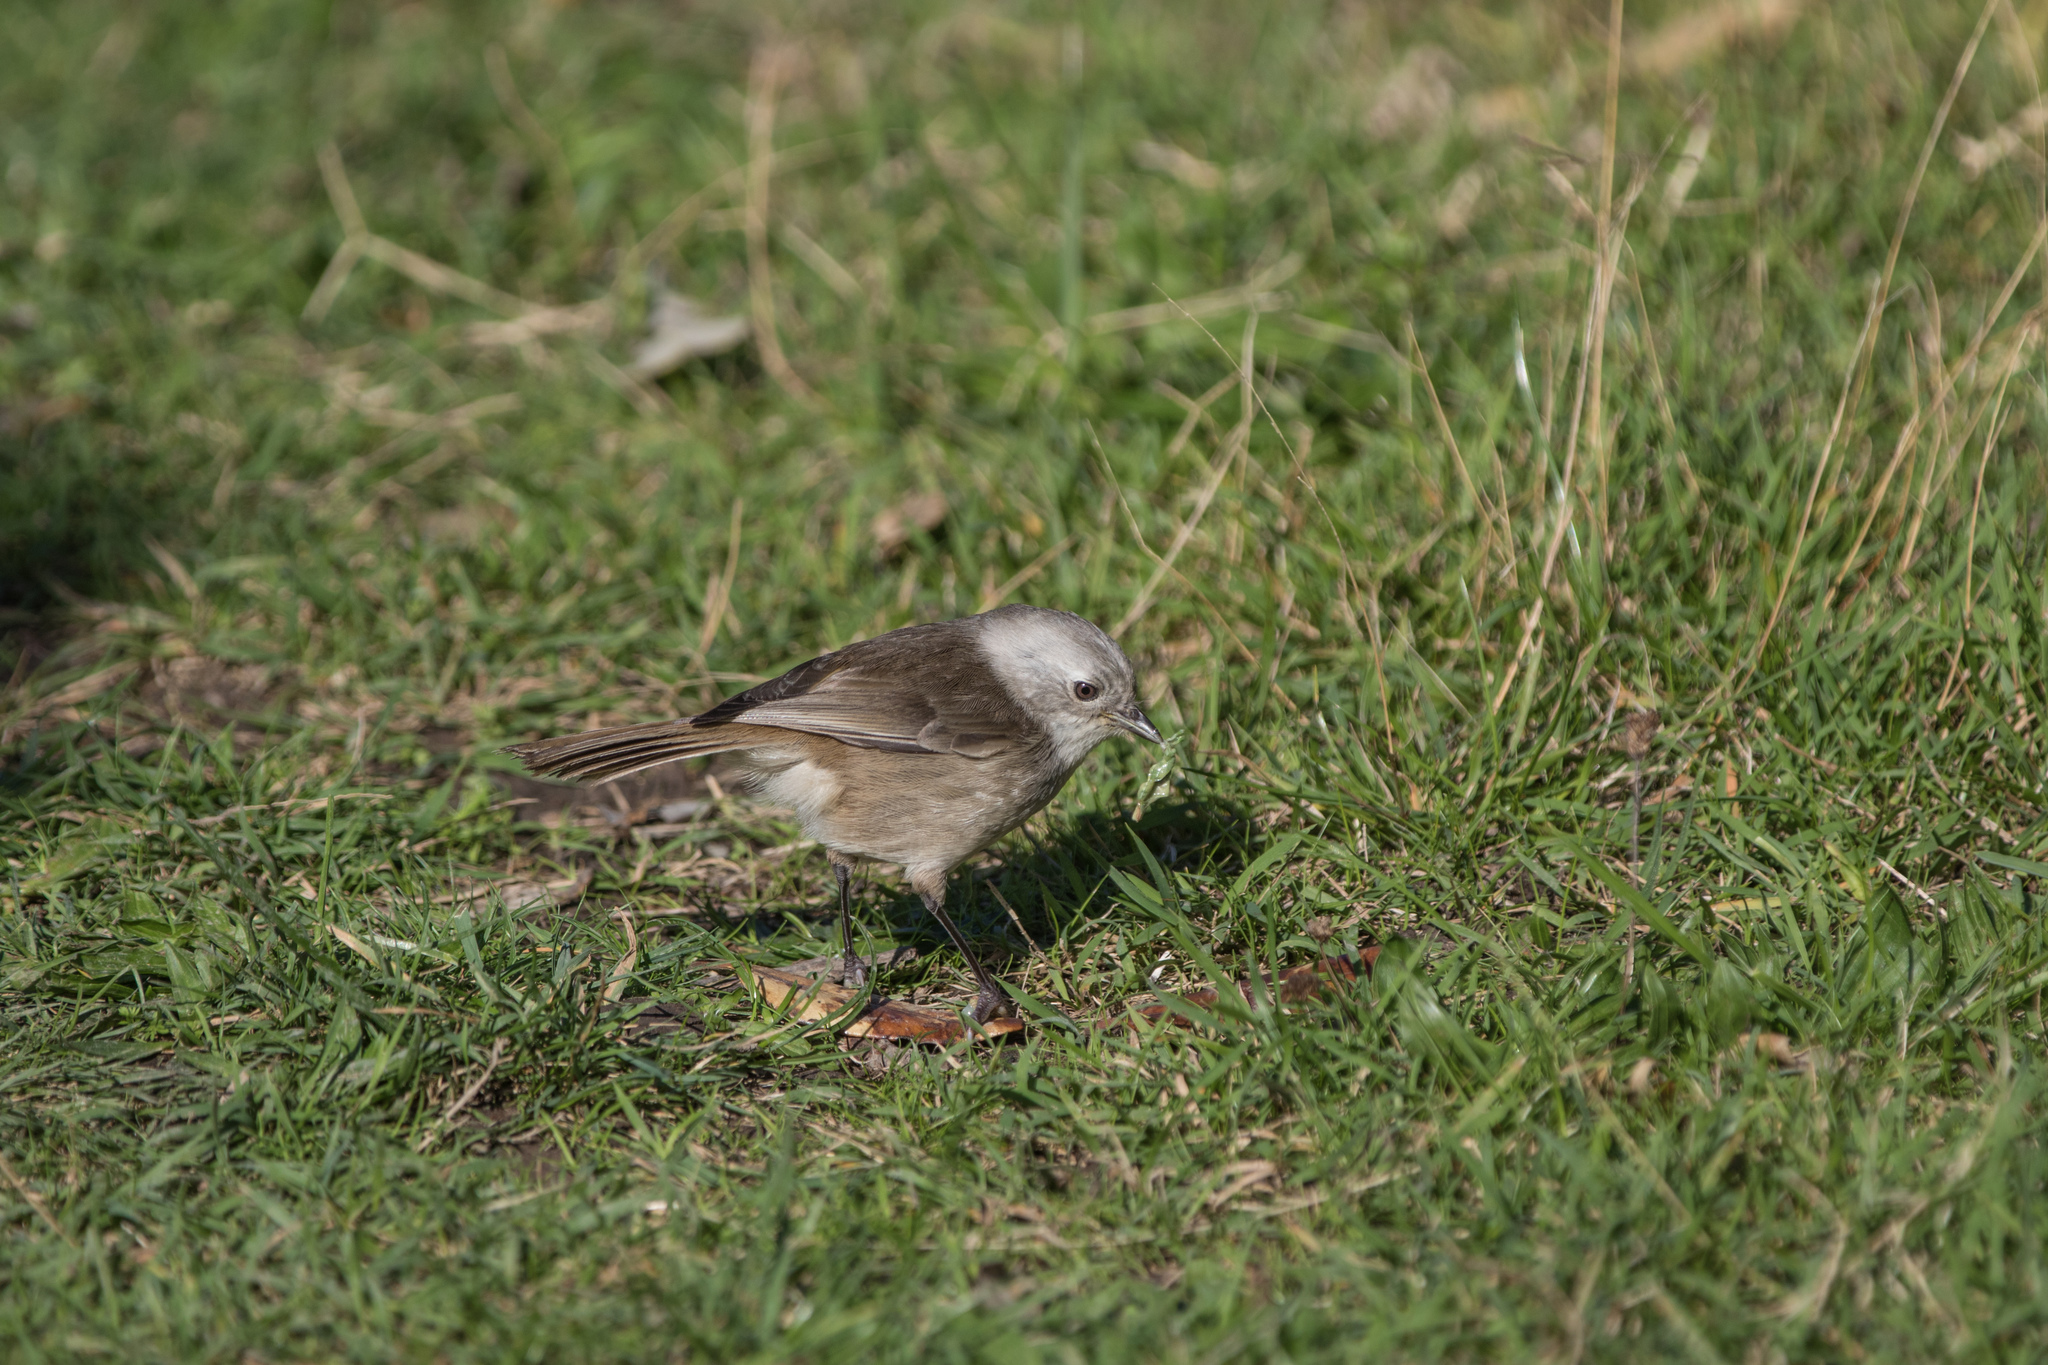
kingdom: Animalia
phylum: Chordata
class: Aves
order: Passeriformes
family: Acanthizidae
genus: Mohoua
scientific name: Mohoua albicilla
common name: Whitehead
